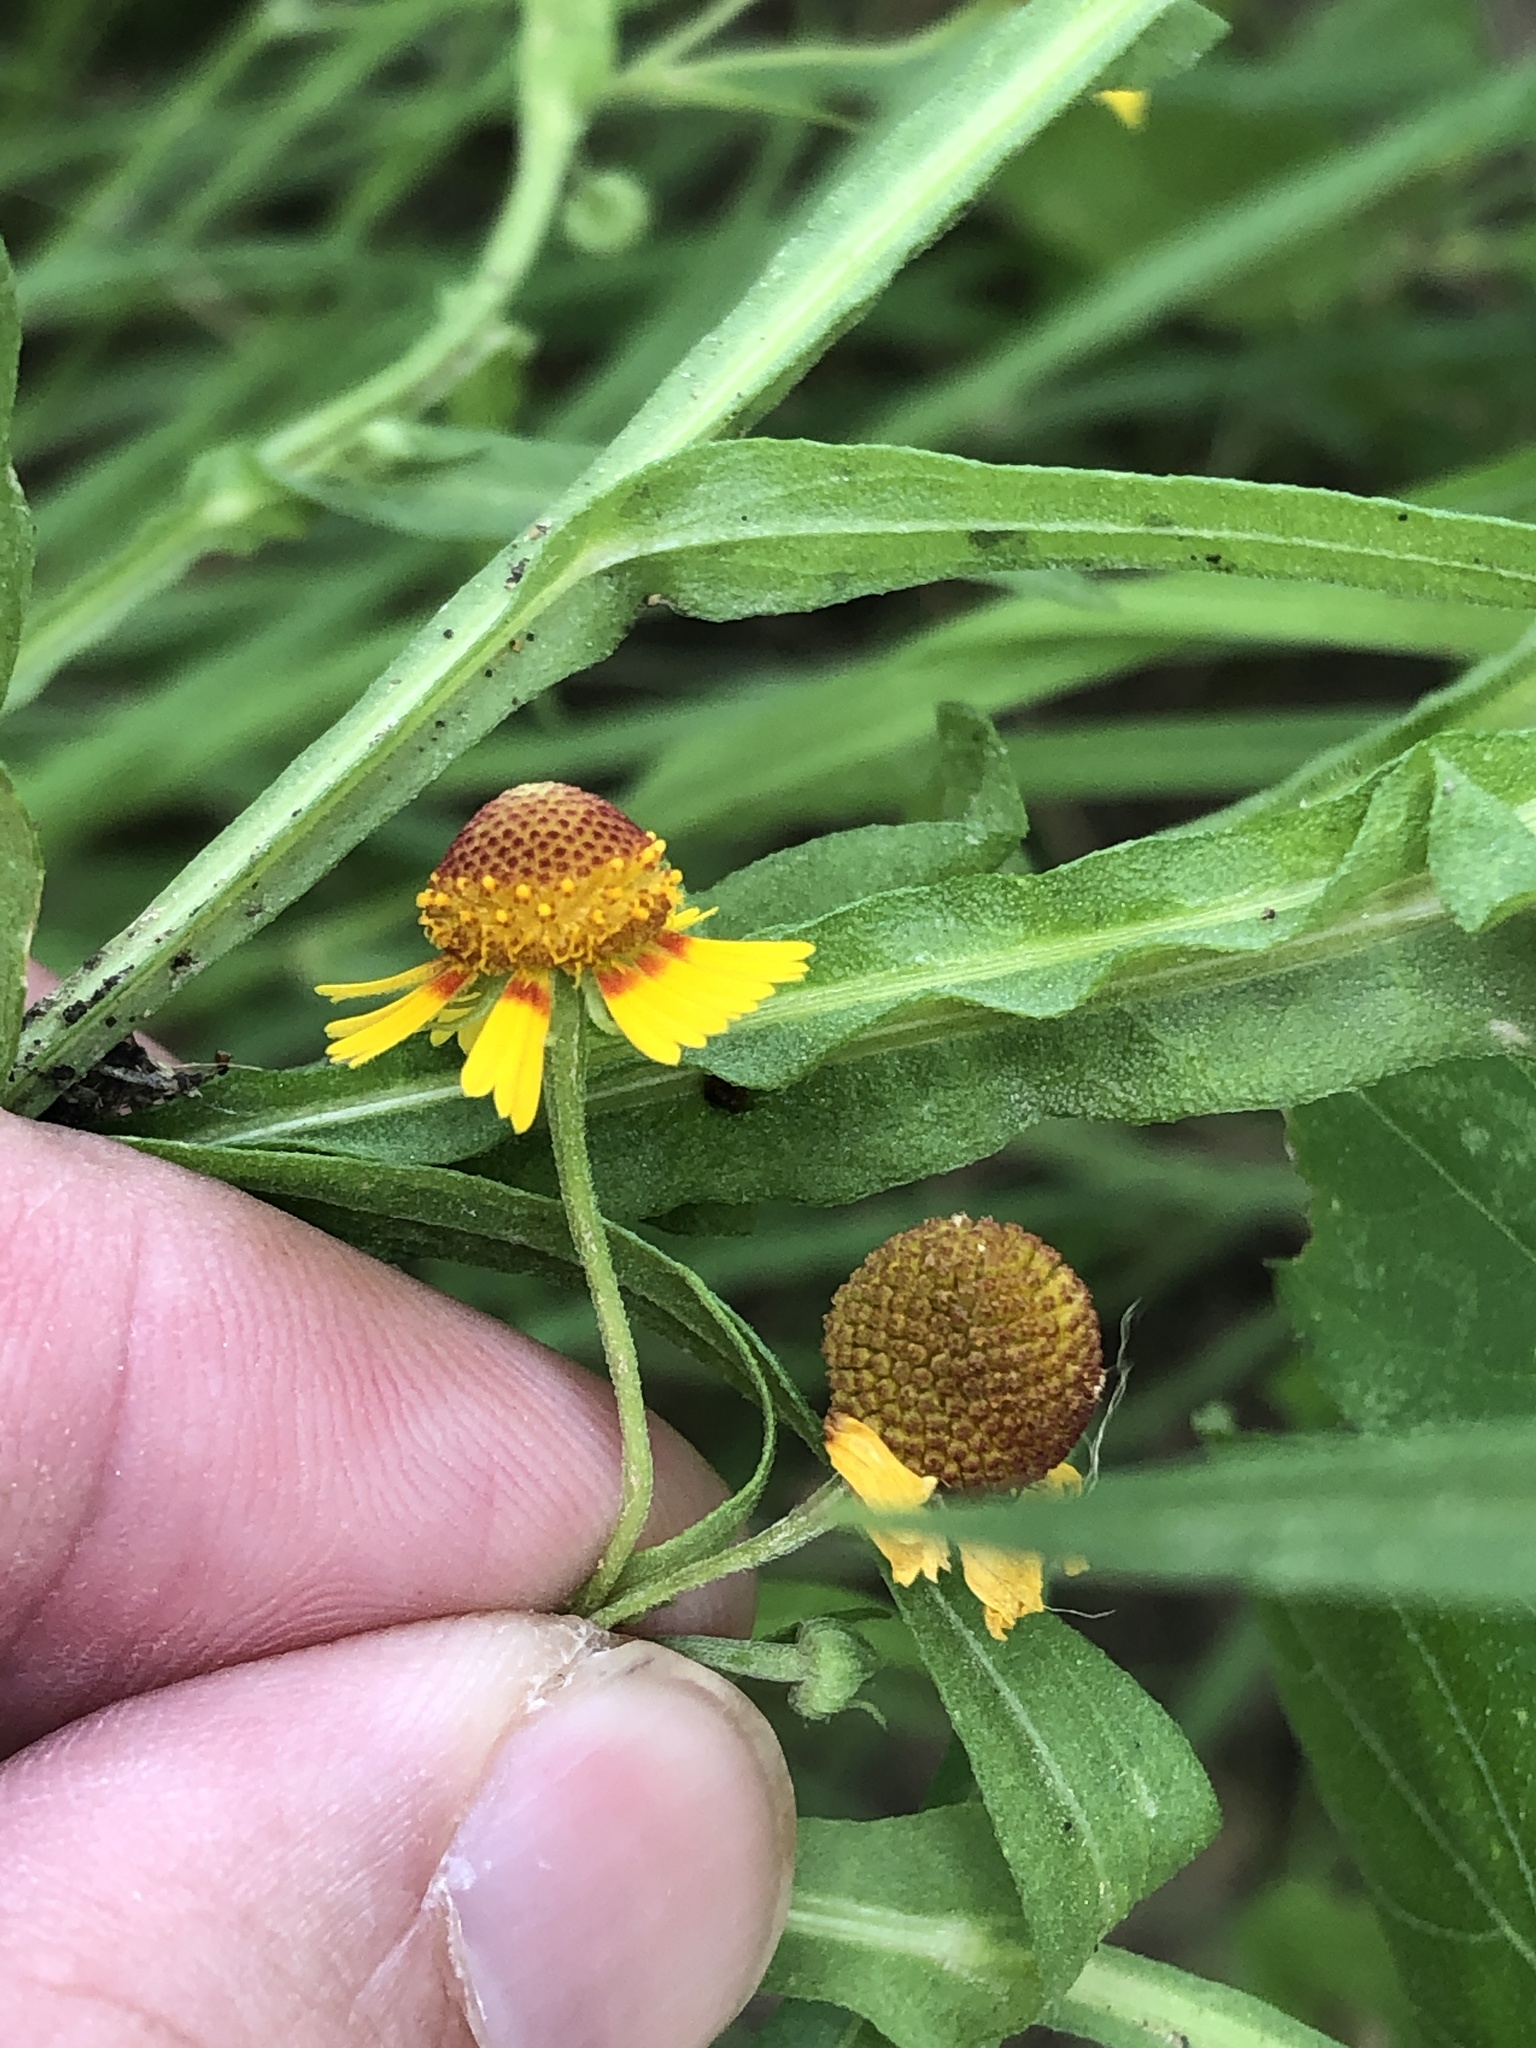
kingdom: Plantae
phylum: Tracheophyta
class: Magnoliopsida
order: Asterales
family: Asteraceae
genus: Helenium
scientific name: Helenium elegans
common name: Pretty sneezeweed
